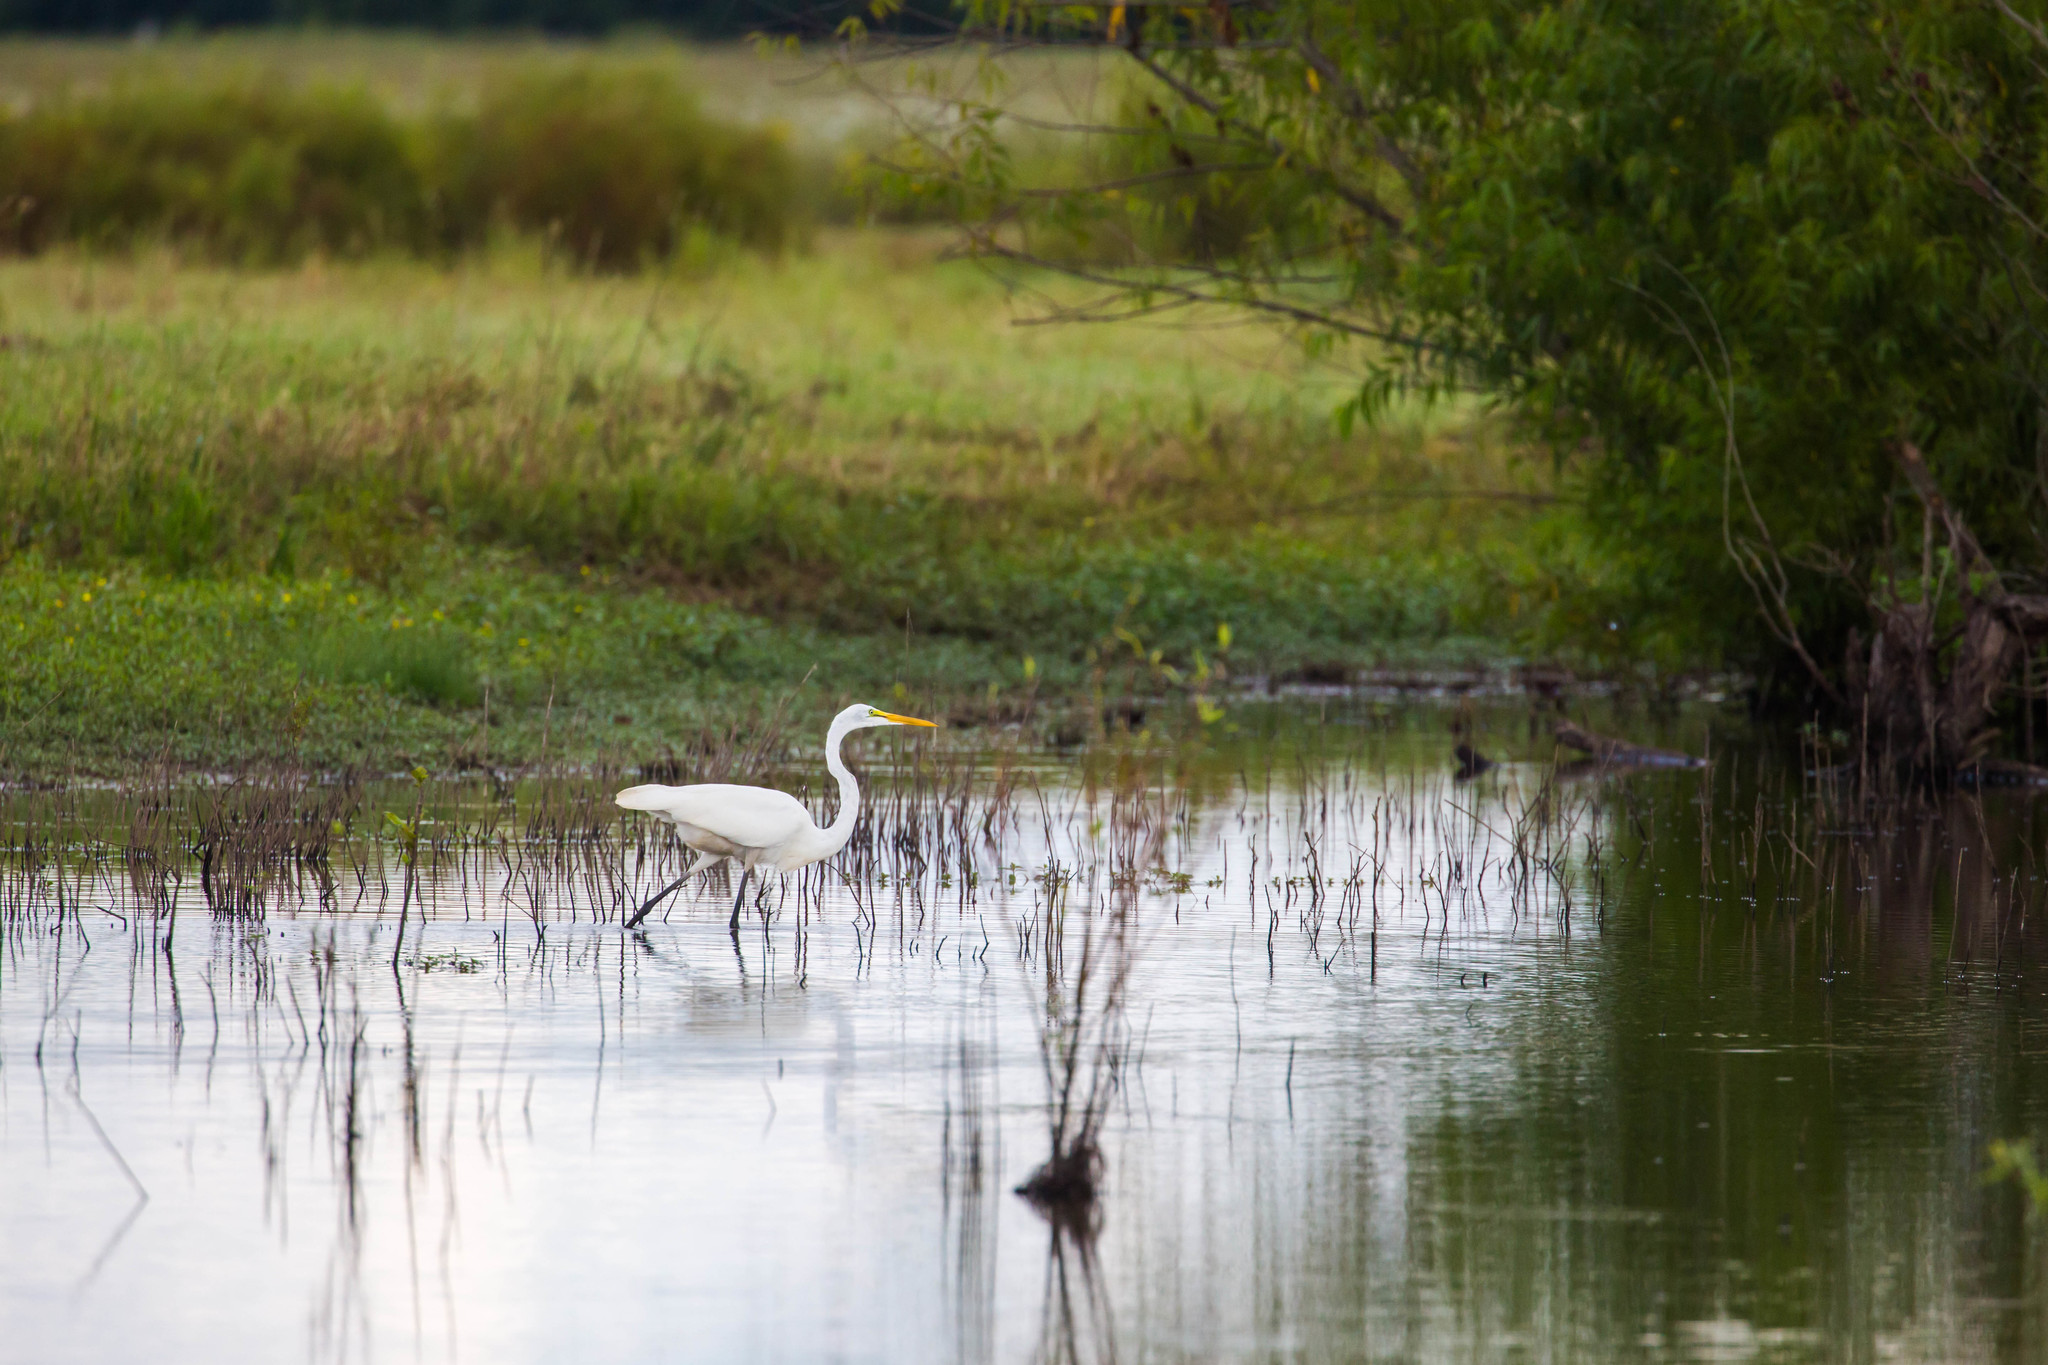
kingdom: Animalia
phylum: Chordata
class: Aves
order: Pelecaniformes
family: Ardeidae
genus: Ardea
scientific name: Ardea alba
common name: Great egret
